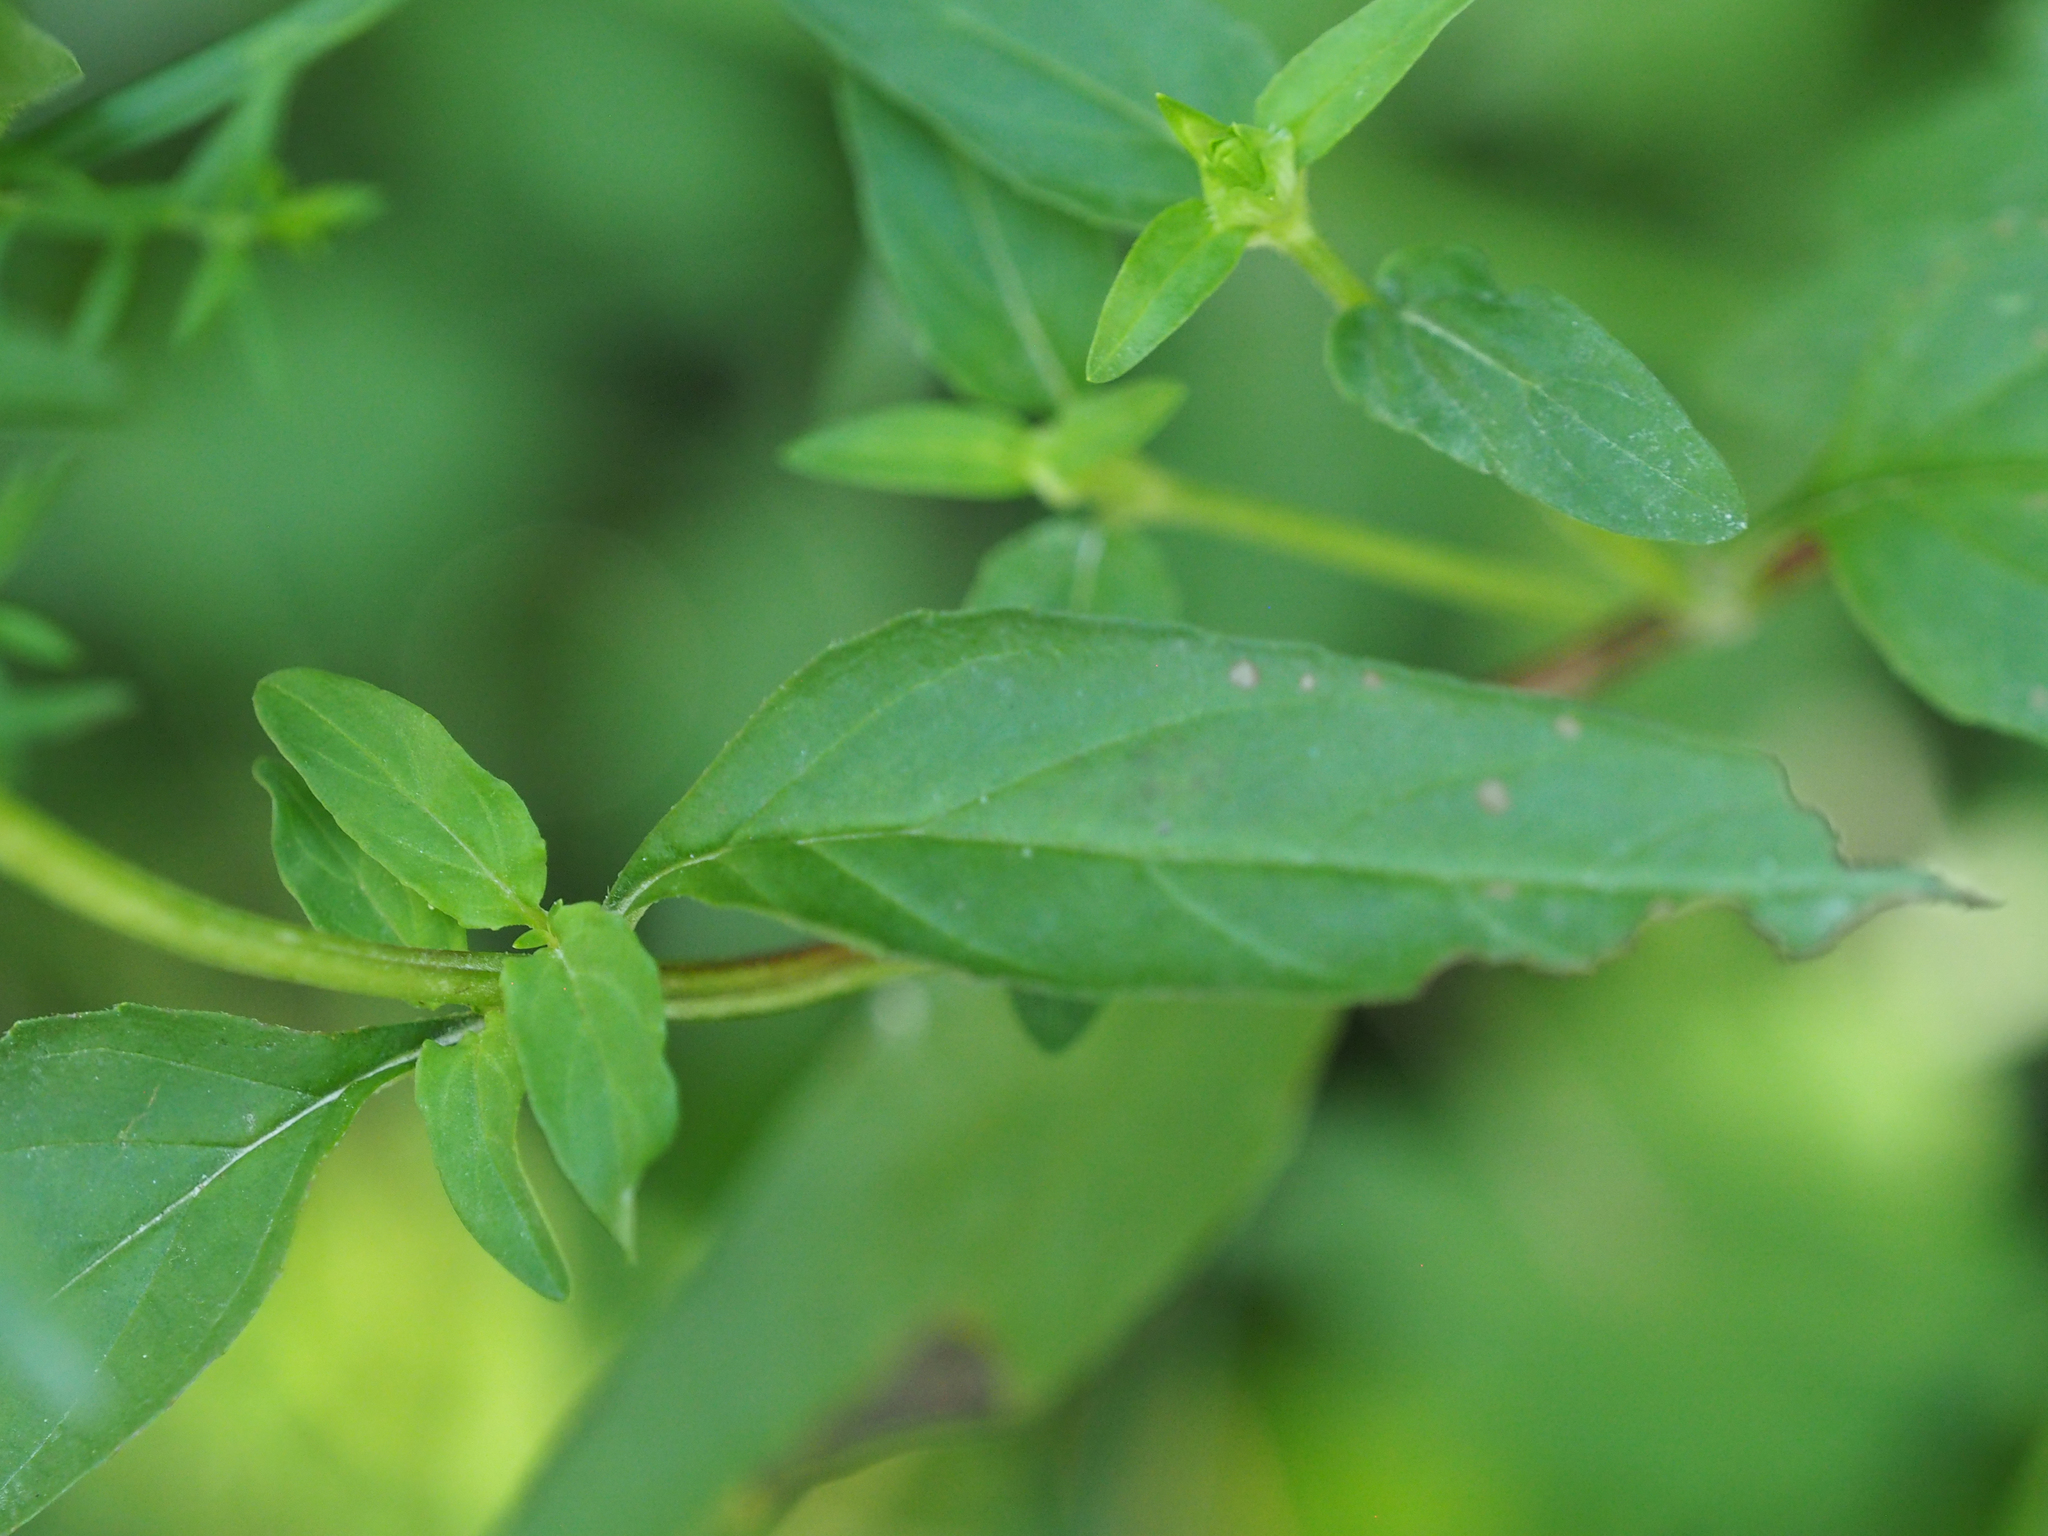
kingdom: Plantae
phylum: Tracheophyta
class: Magnoliopsida
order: Lamiales
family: Lamiaceae
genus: Prunella
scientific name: Prunella vulgaris
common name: Heal-all
